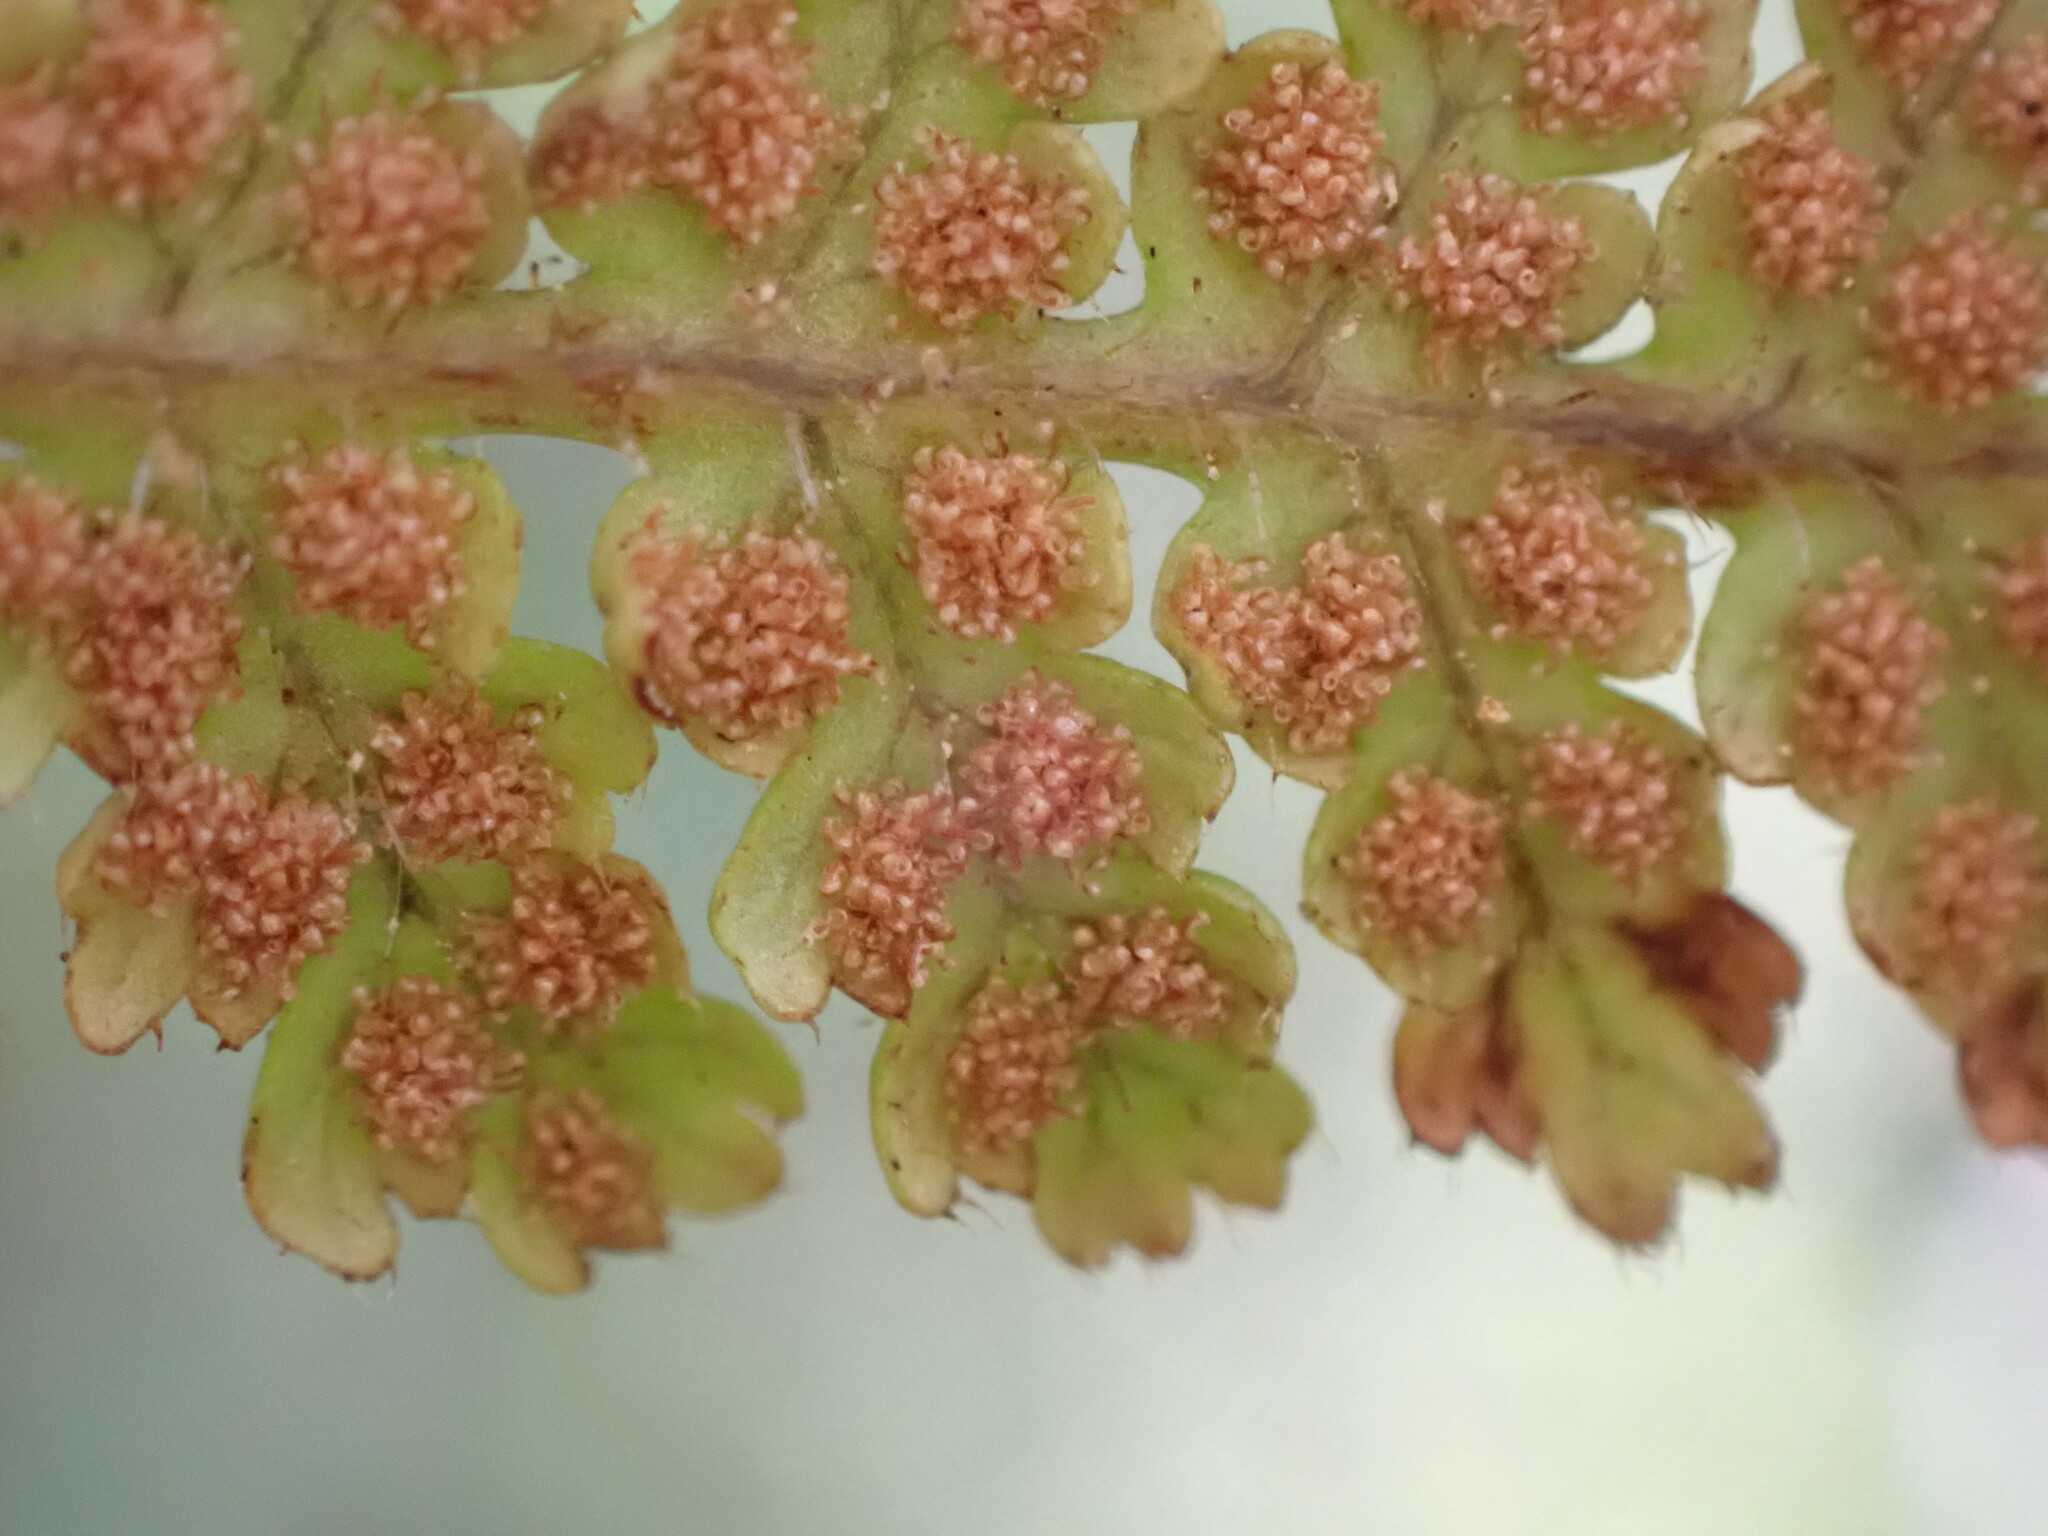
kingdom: Plantae
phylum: Tracheophyta
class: Polypodiopsida
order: Polypodiales
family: Dennstaedtiaceae
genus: Hypolepis
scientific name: Hypolepis rugosula
